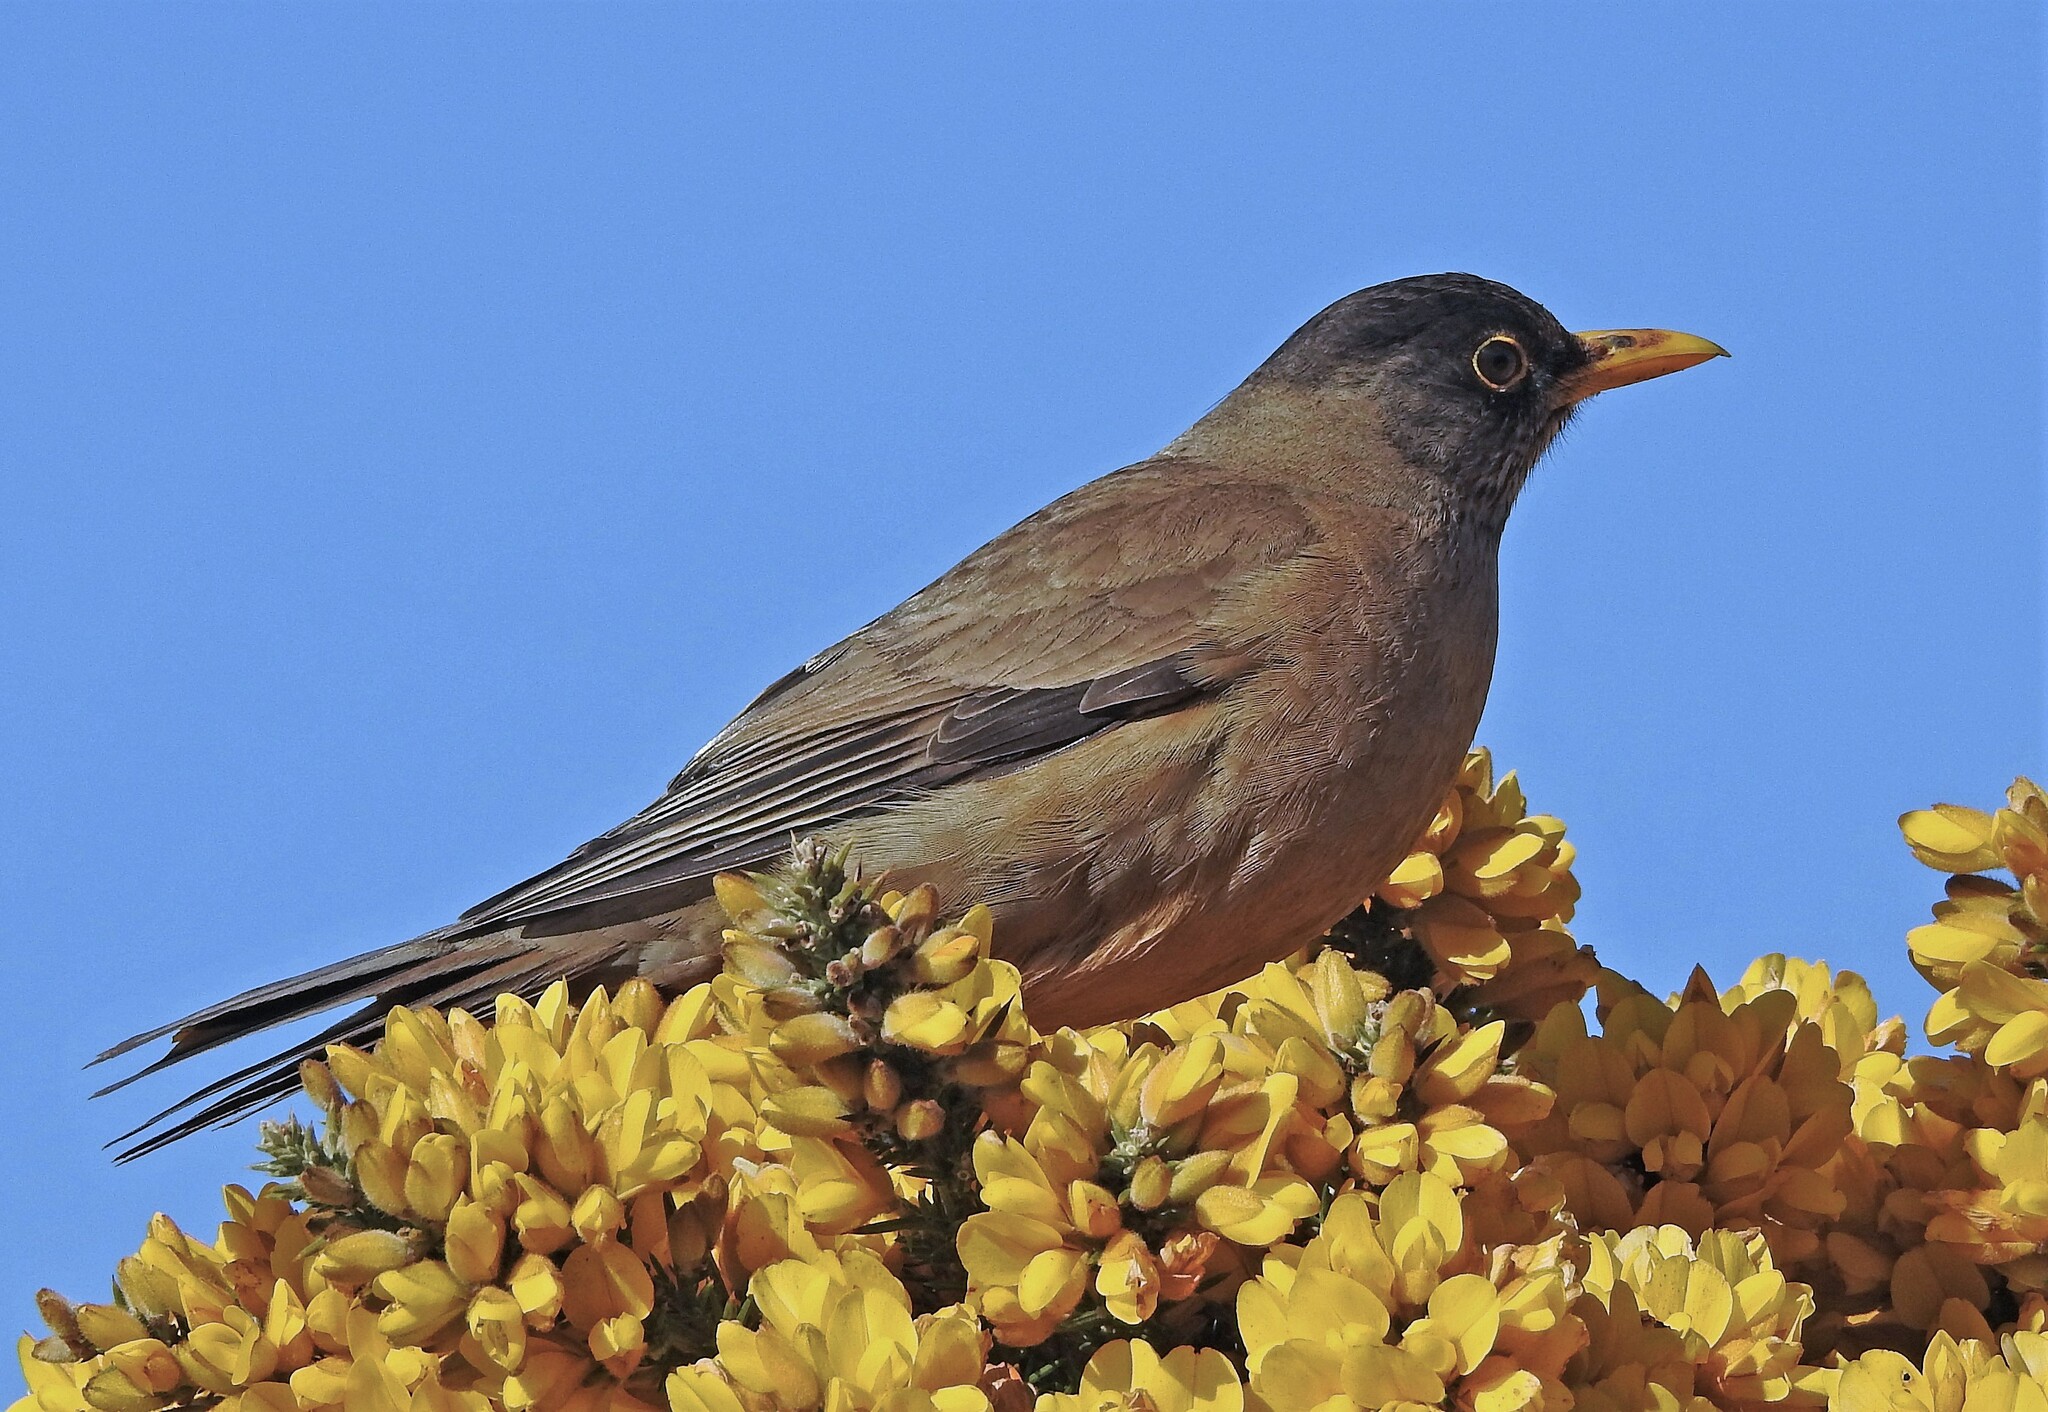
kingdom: Animalia
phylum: Chordata
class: Aves
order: Passeriformes
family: Turdidae
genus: Turdus
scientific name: Turdus falcklandii
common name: Austral thrush
